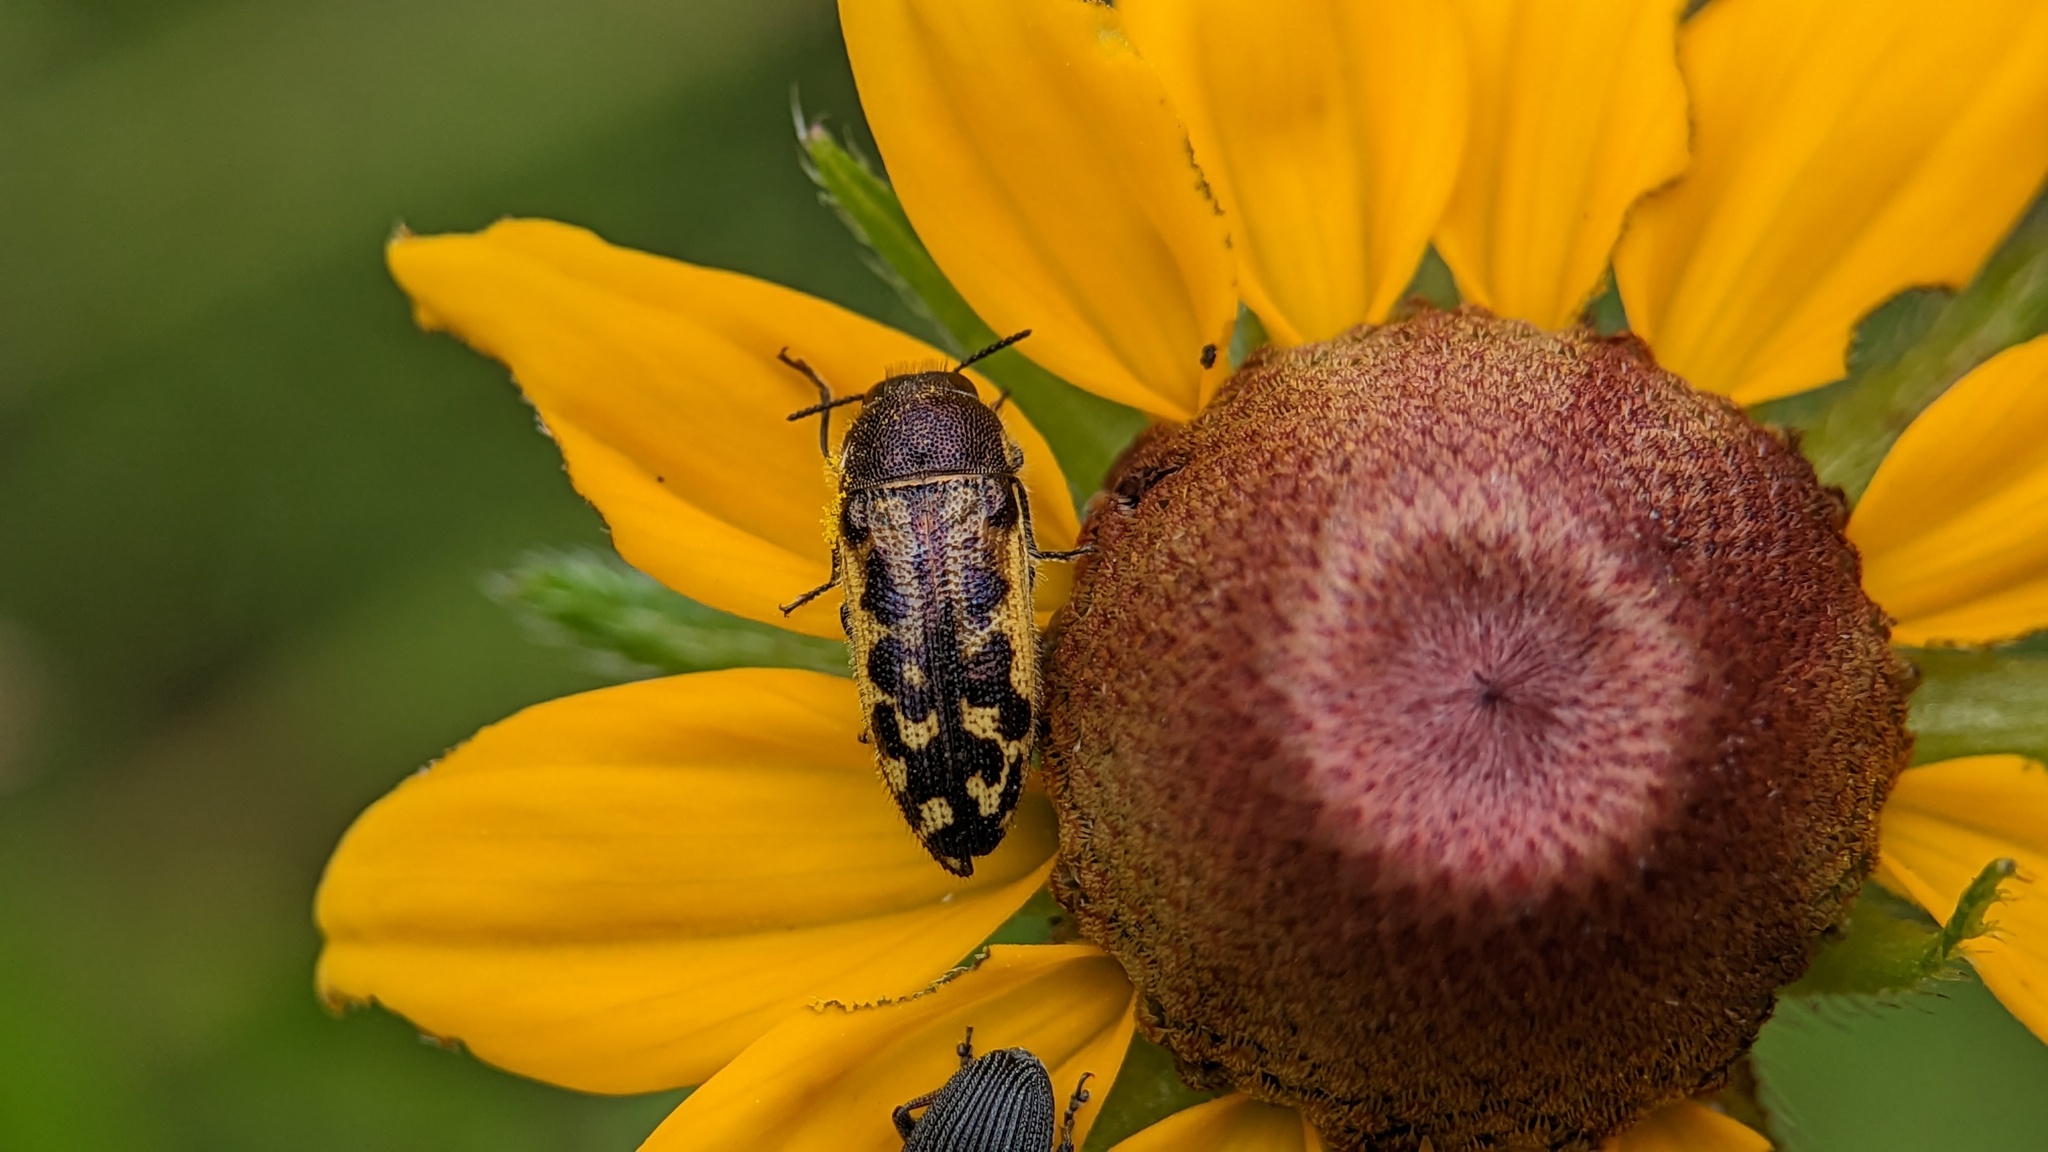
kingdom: Animalia
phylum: Arthropoda
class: Insecta
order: Coleoptera
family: Buprestidae
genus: Acmaeodera
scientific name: Acmaeodera pulchella
